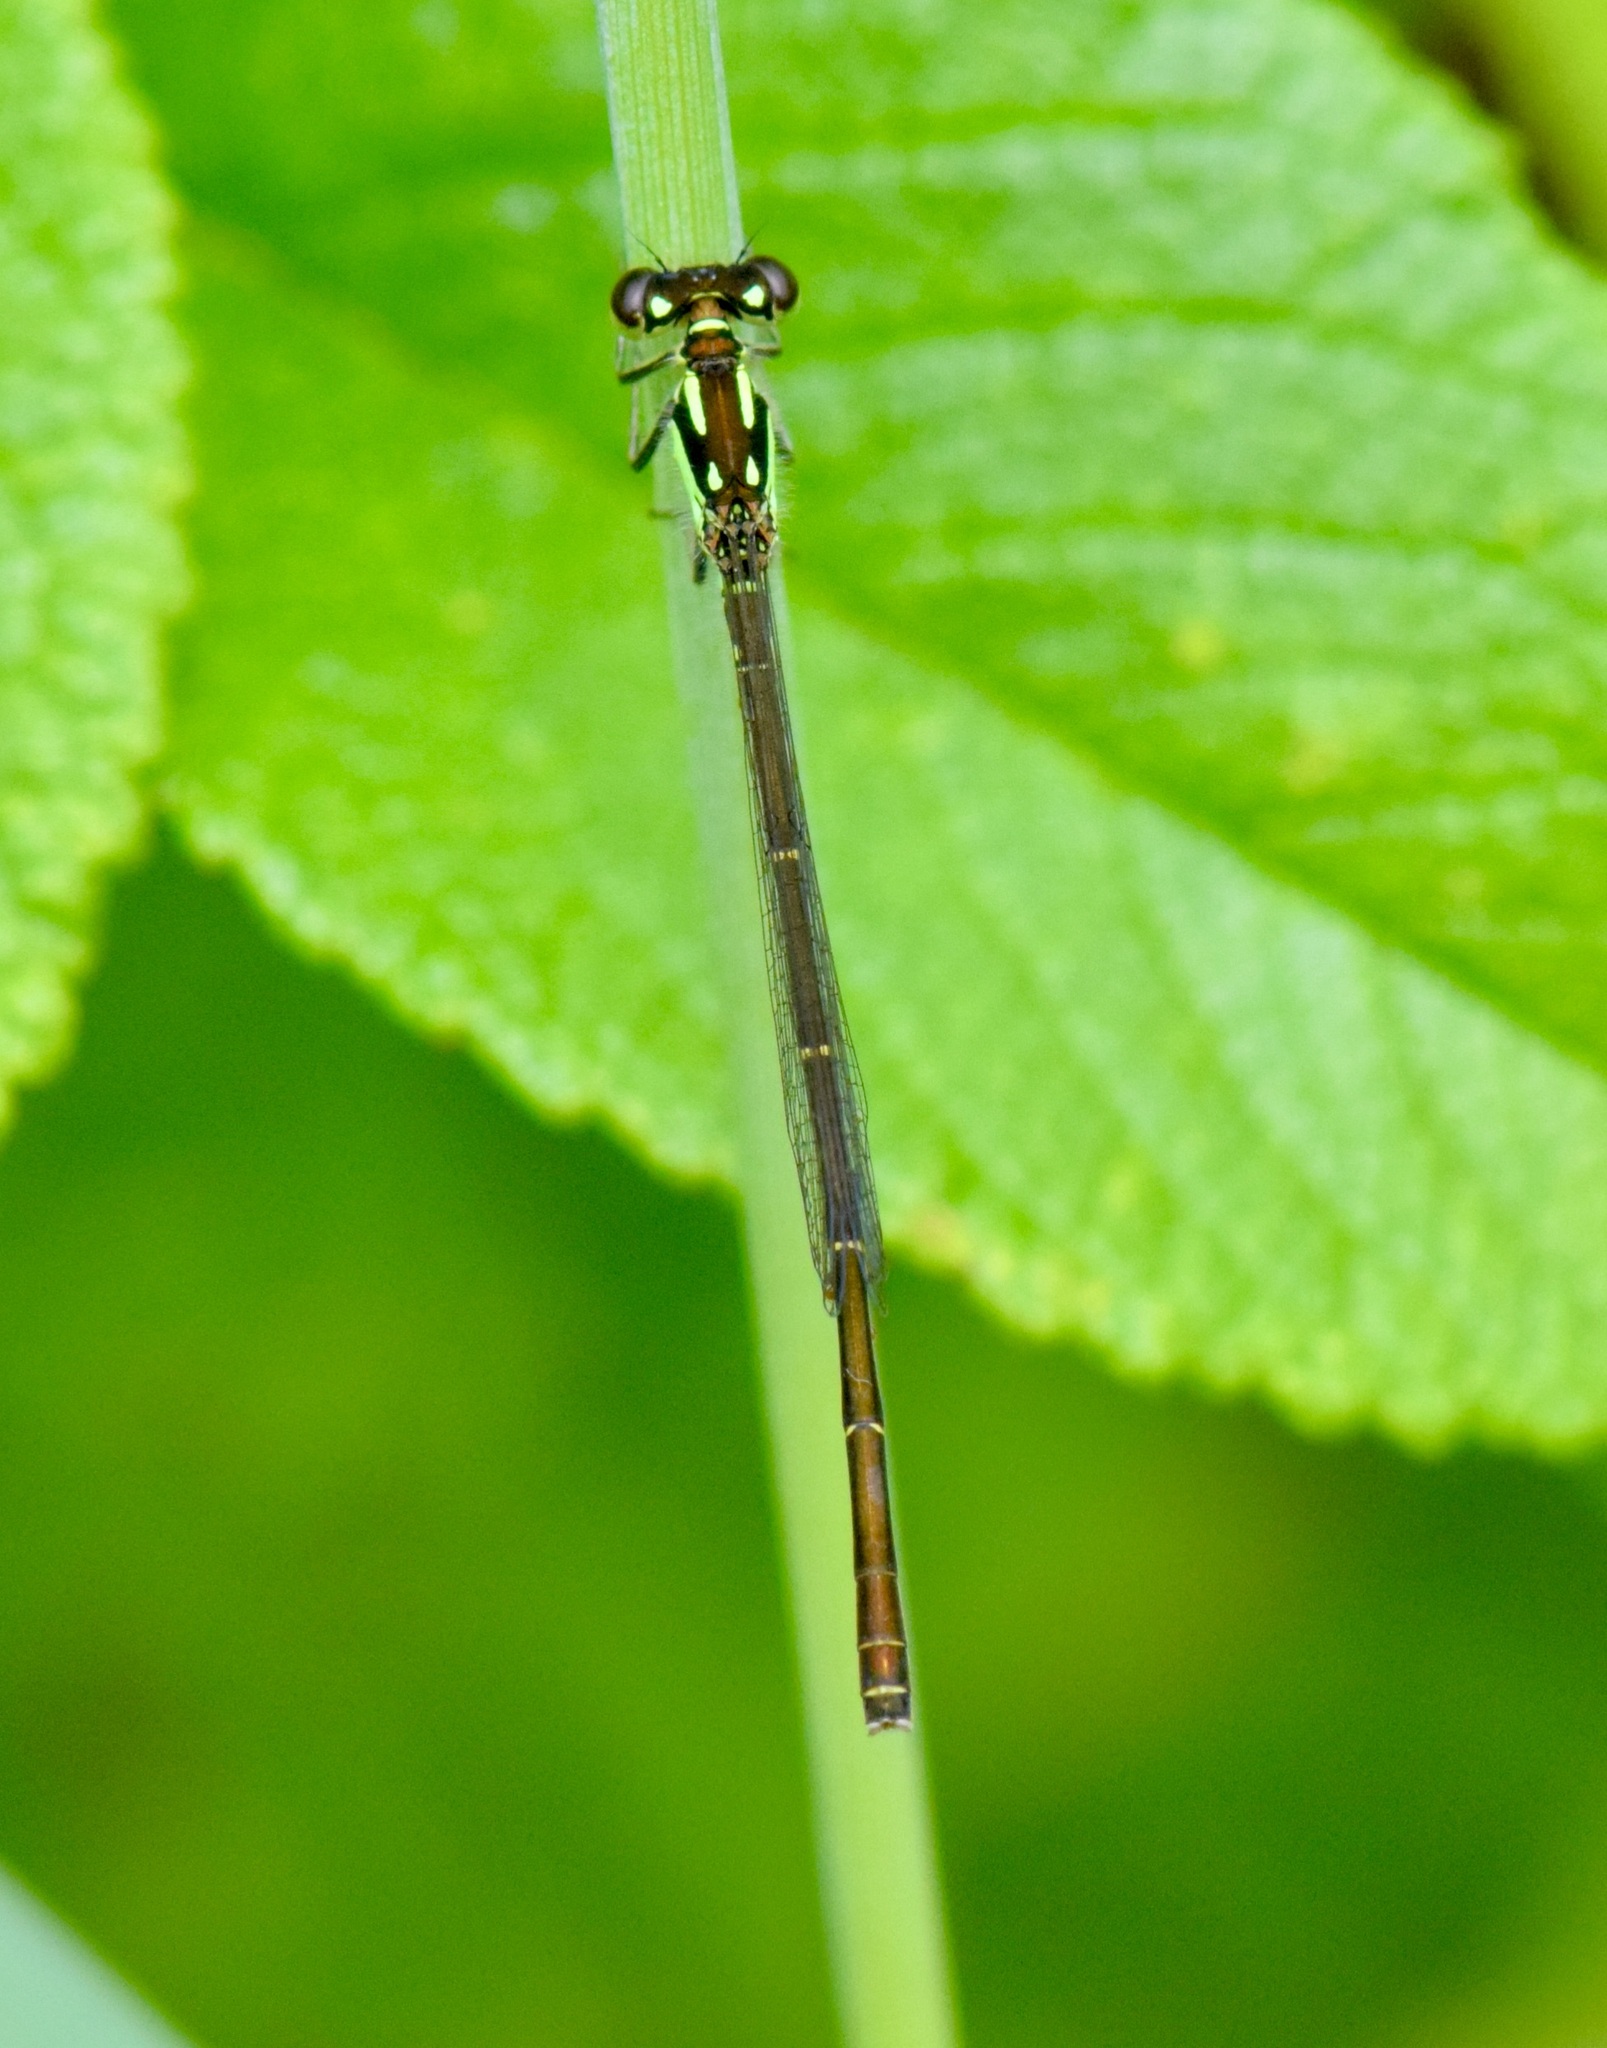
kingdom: Animalia
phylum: Arthropoda
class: Insecta
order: Odonata
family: Coenagrionidae
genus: Ischnura
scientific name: Ischnura posita
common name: Fragile forktail
